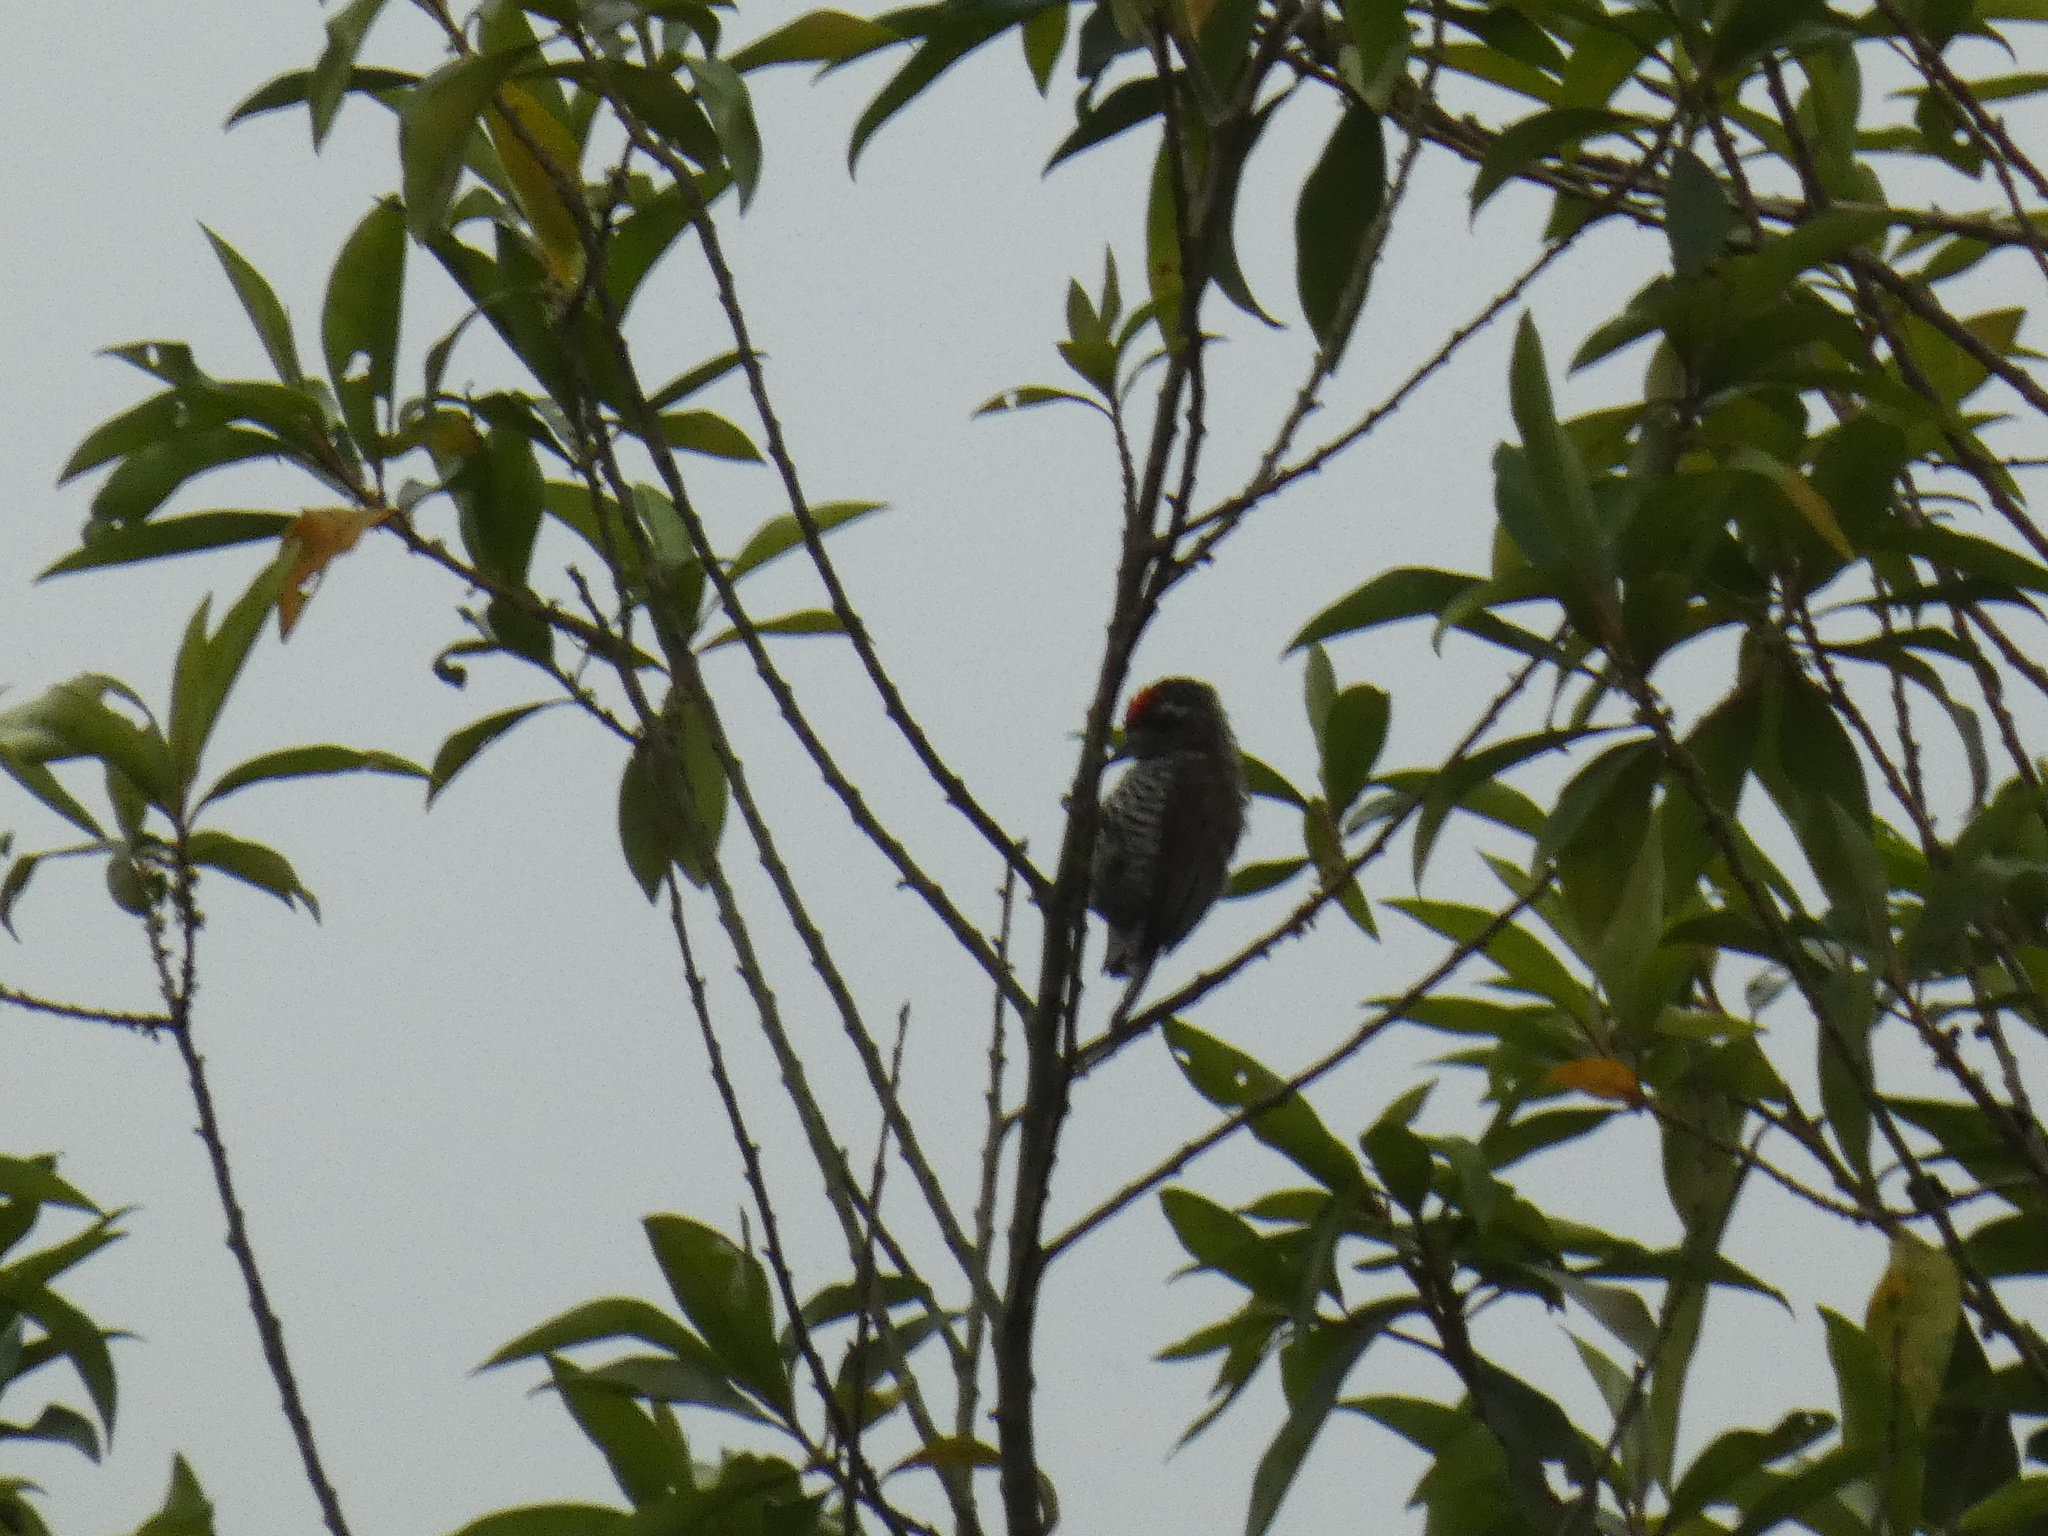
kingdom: Animalia
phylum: Chordata
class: Aves
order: Piciformes
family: Picidae
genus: Picumnus
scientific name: Picumnus cirratus
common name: White-barred piculet
